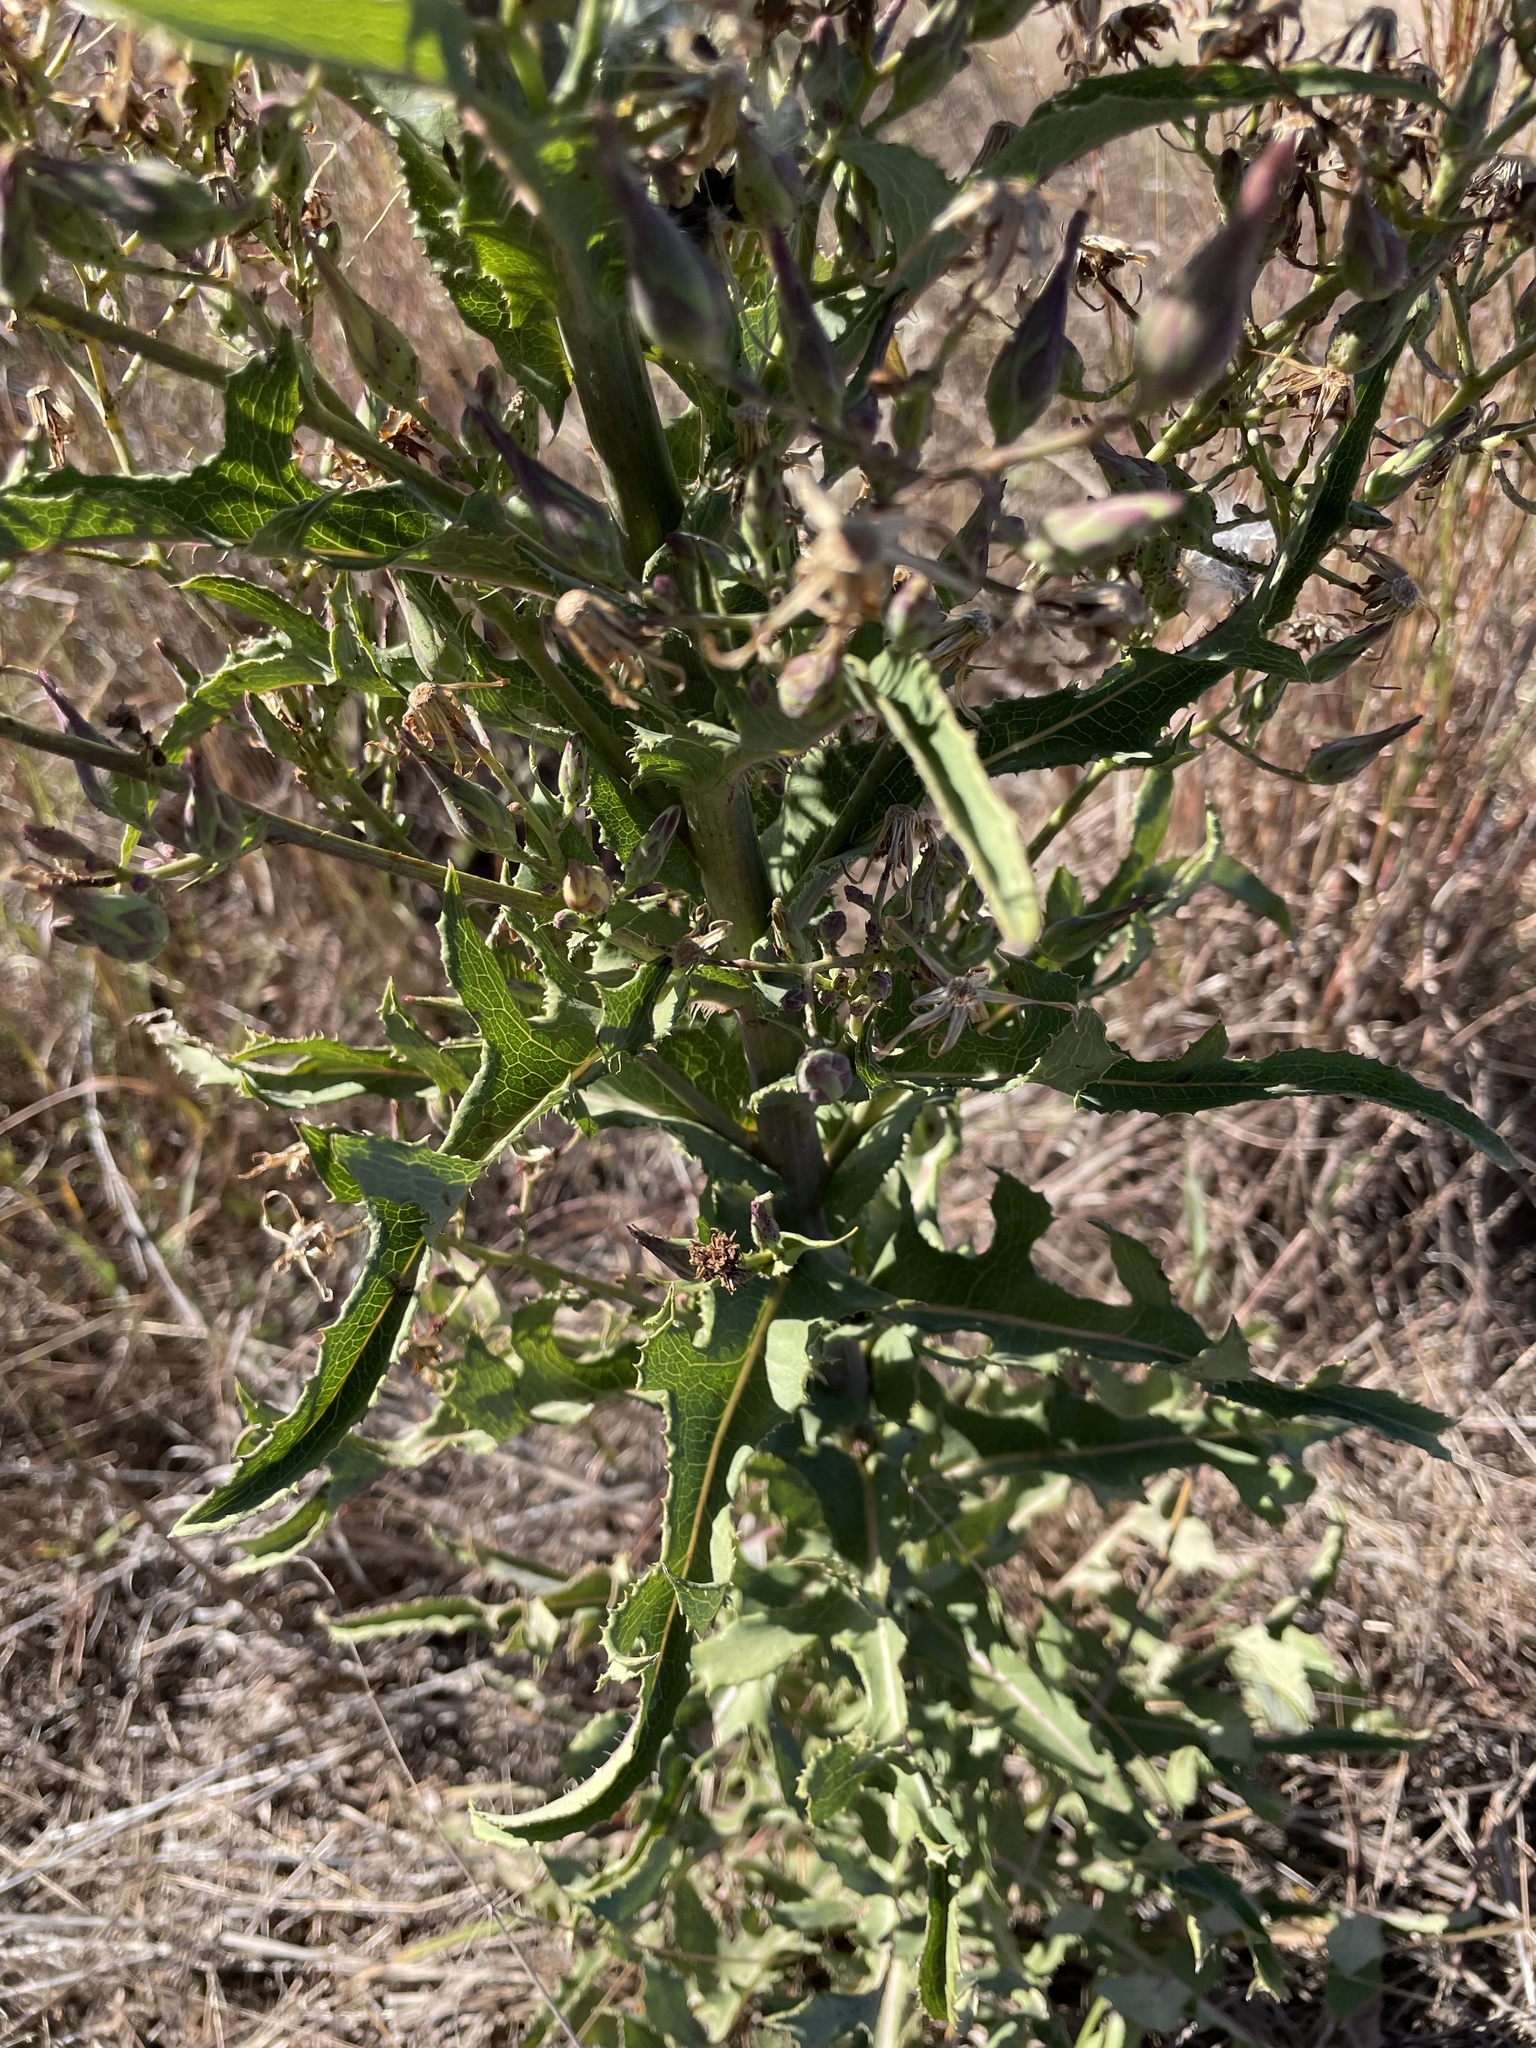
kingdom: Plantae
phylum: Tracheophyta
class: Magnoliopsida
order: Asterales
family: Asteraceae
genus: Erigeron
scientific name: Erigeron canadensis
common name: Canadian fleabane
